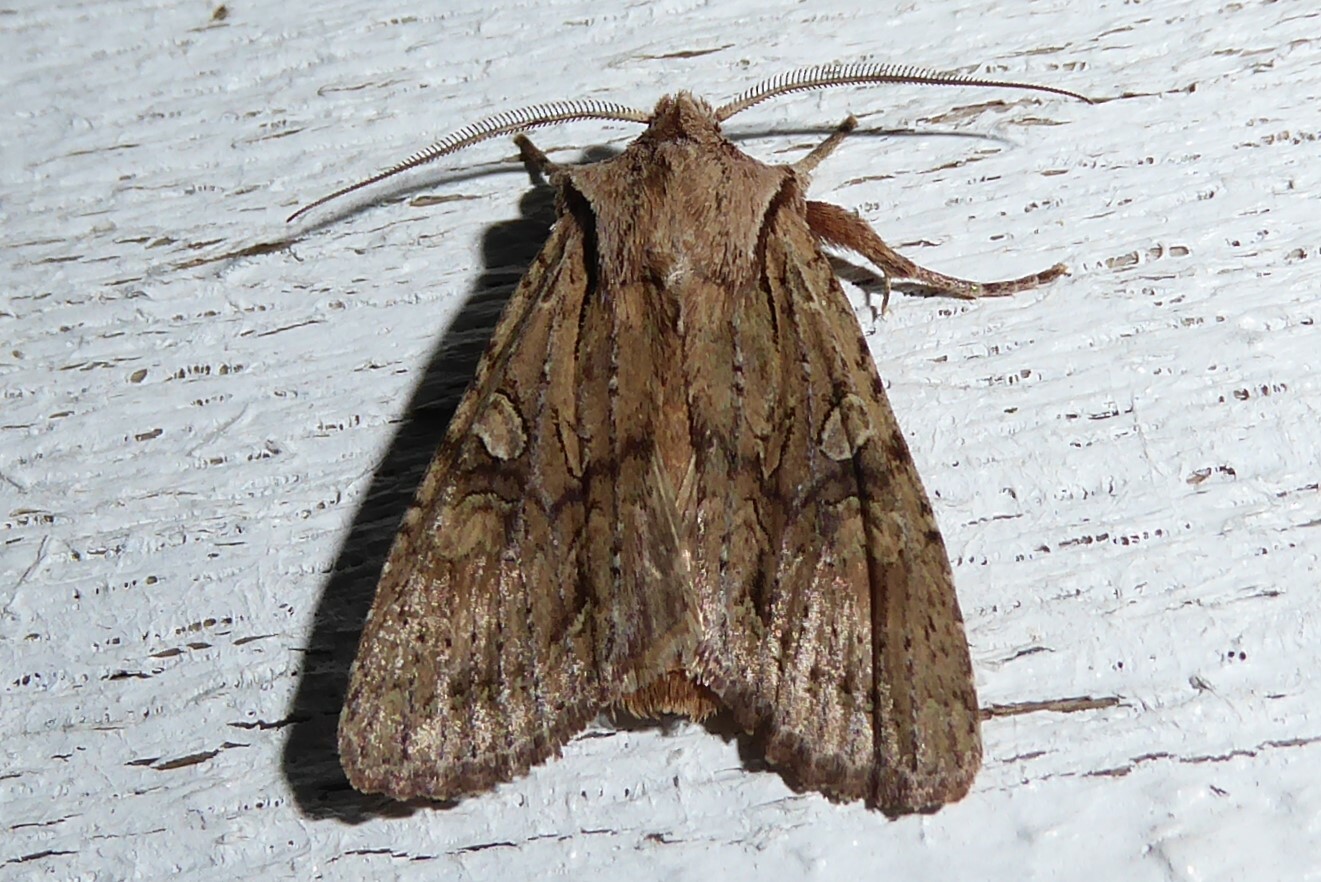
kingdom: Animalia
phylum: Arthropoda
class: Insecta
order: Lepidoptera
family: Noctuidae
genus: Ichneutica
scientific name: Ichneutica
